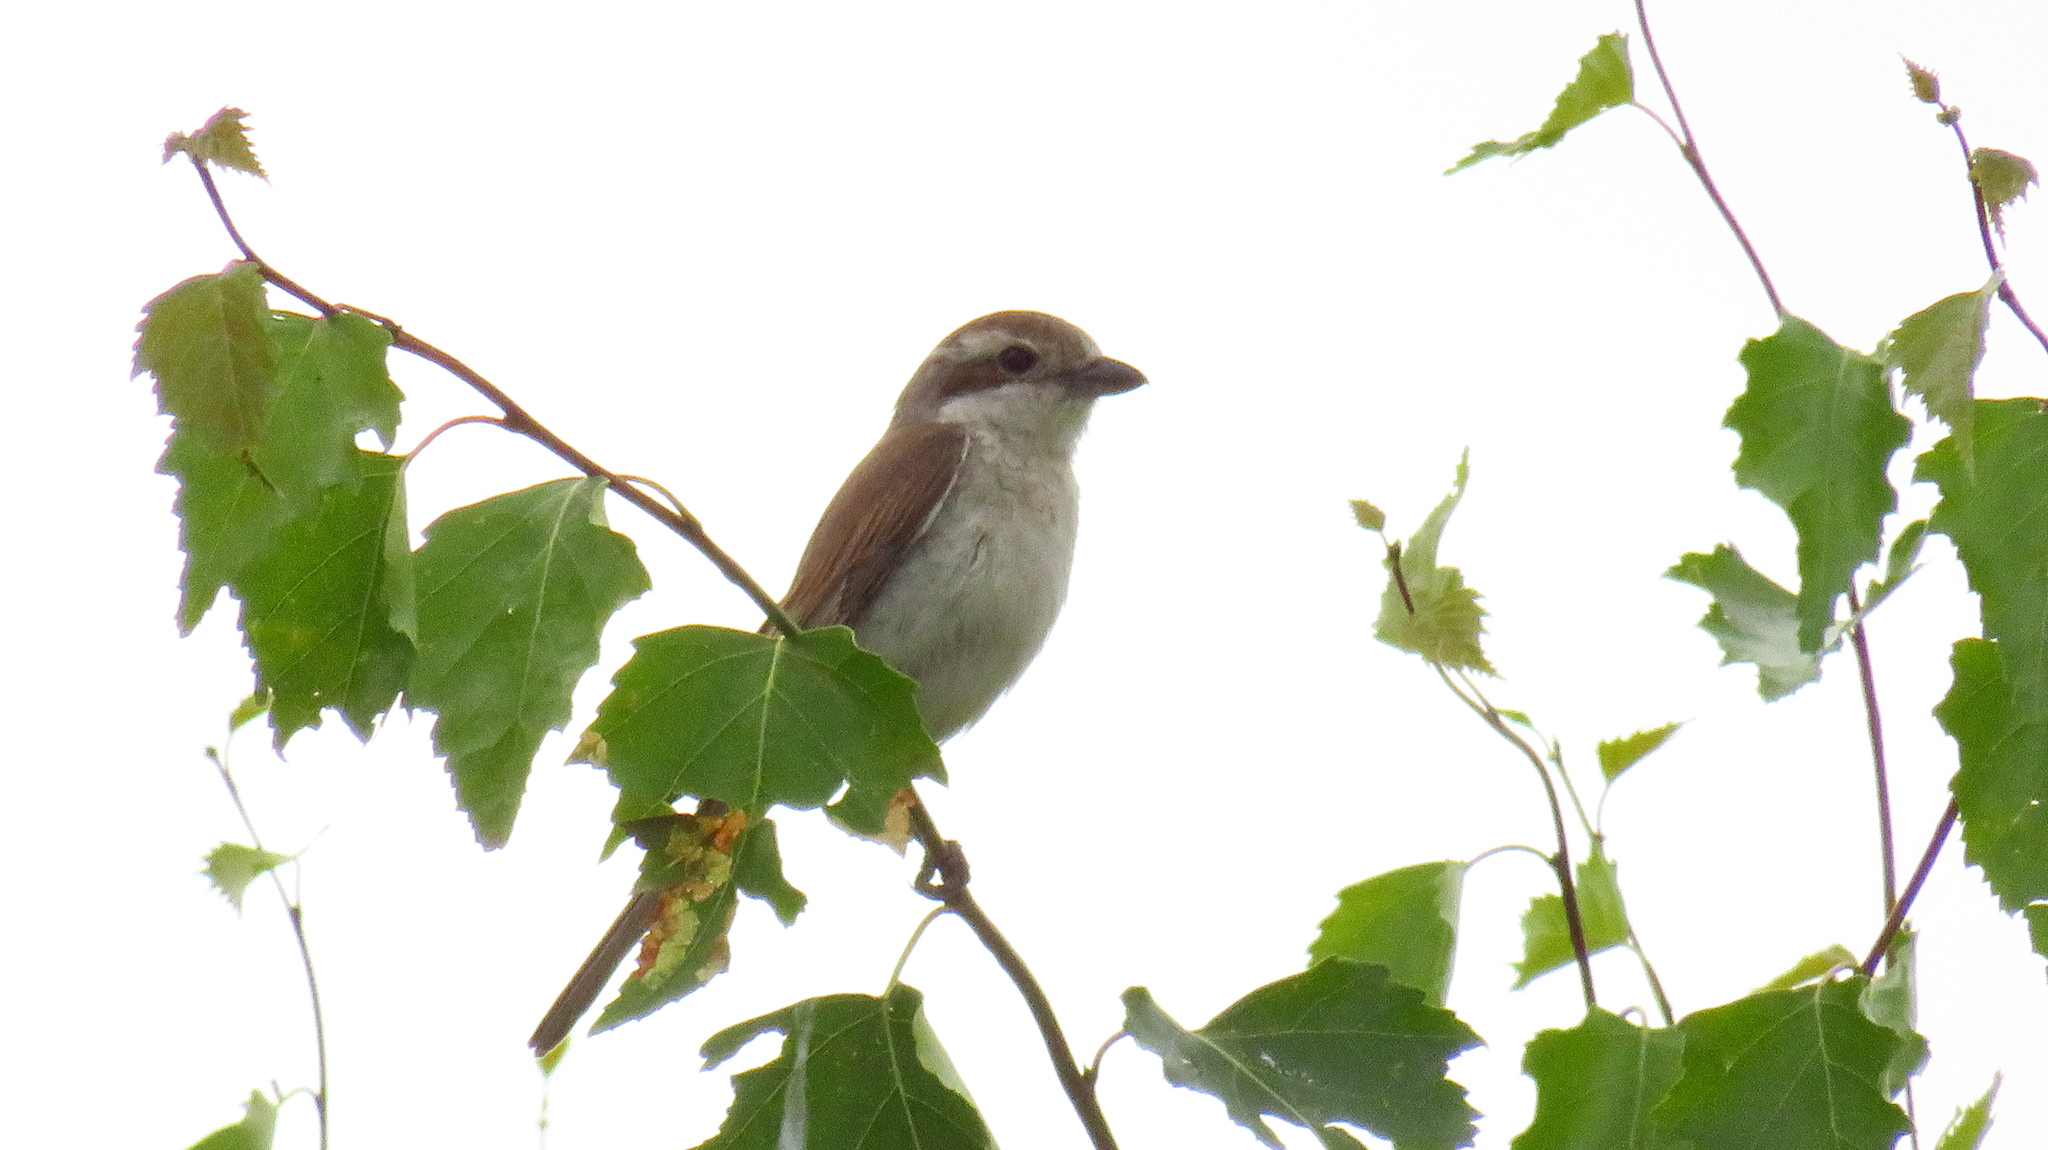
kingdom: Animalia
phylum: Chordata
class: Aves
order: Passeriformes
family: Laniidae
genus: Lanius
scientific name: Lanius collurio
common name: Red-backed shrike
